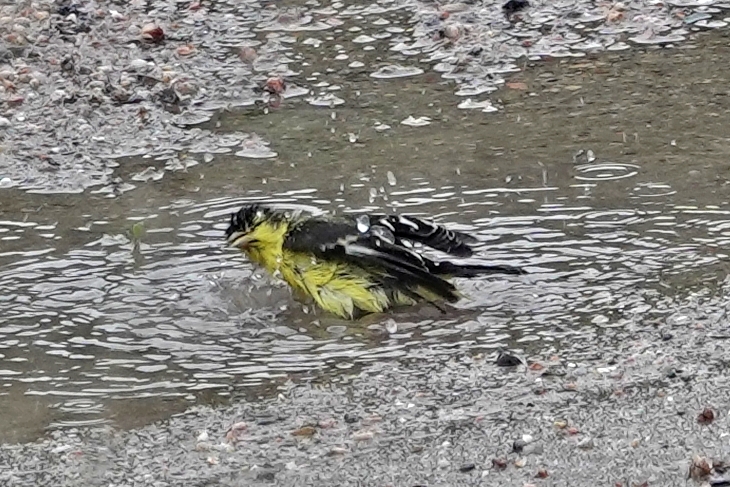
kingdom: Animalia
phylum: Chordata
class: Aves
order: Passeriformes
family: Fringillidae
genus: Spinus
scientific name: Spinus psaltria
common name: Lesser goldfinch
